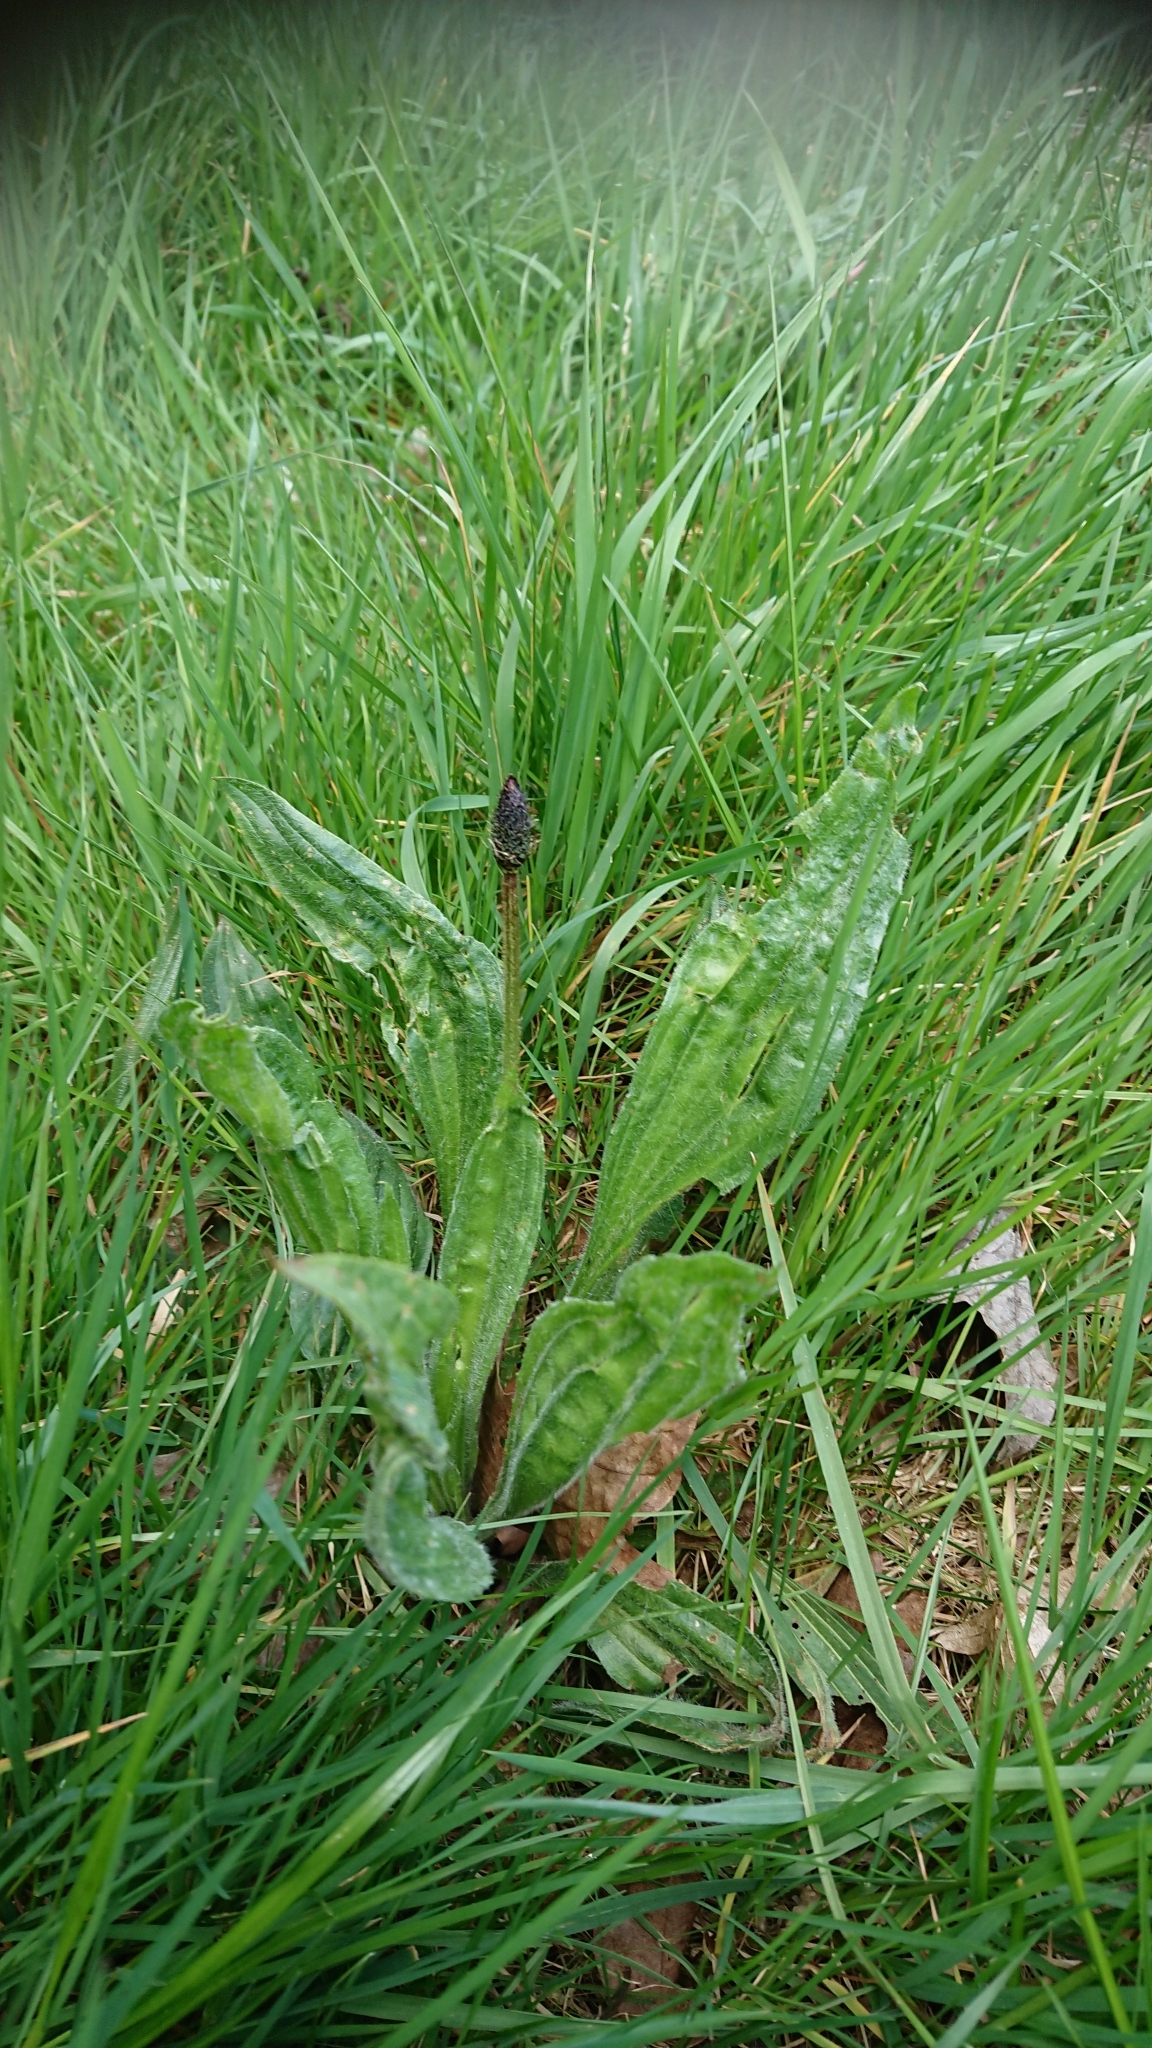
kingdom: Plantae
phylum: Tracheophyta
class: Magnoliopsida
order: Lamiales
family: Plantaginaceae
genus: Plantago
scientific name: Plantago lanceolata
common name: Ribwort plantain
